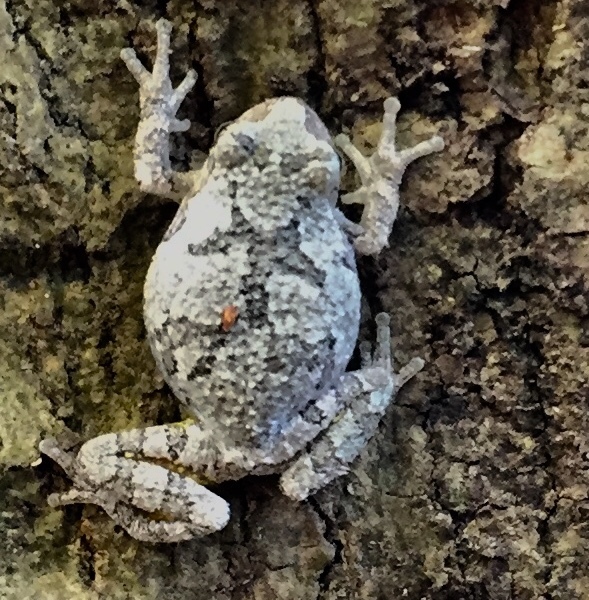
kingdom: Animalia
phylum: Chordata
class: Amphibia
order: Anura
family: Hylidae
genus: Dryophytes
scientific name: Dryophytes versicolor
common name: Gray treefrog
